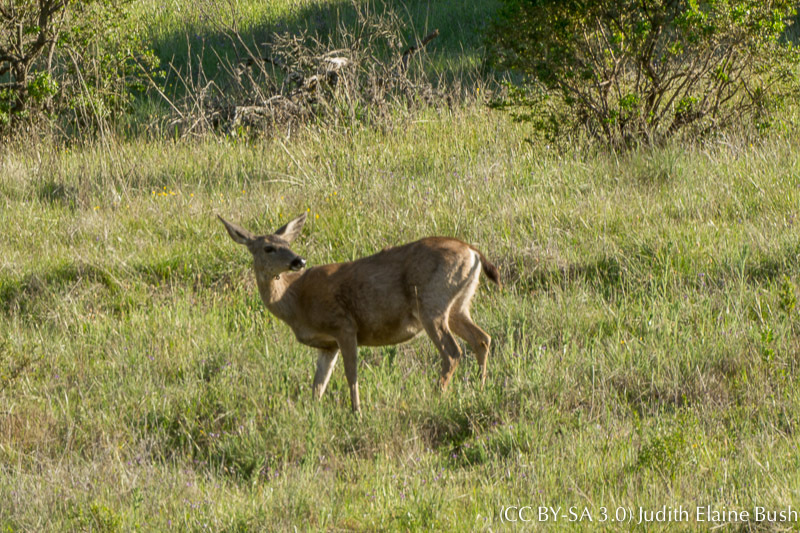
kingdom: Animalia
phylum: Chordata
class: Mammalia
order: Artiodactyla
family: Cervidae
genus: Odocoileus
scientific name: Odocoileus hemionus
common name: Mule deer
